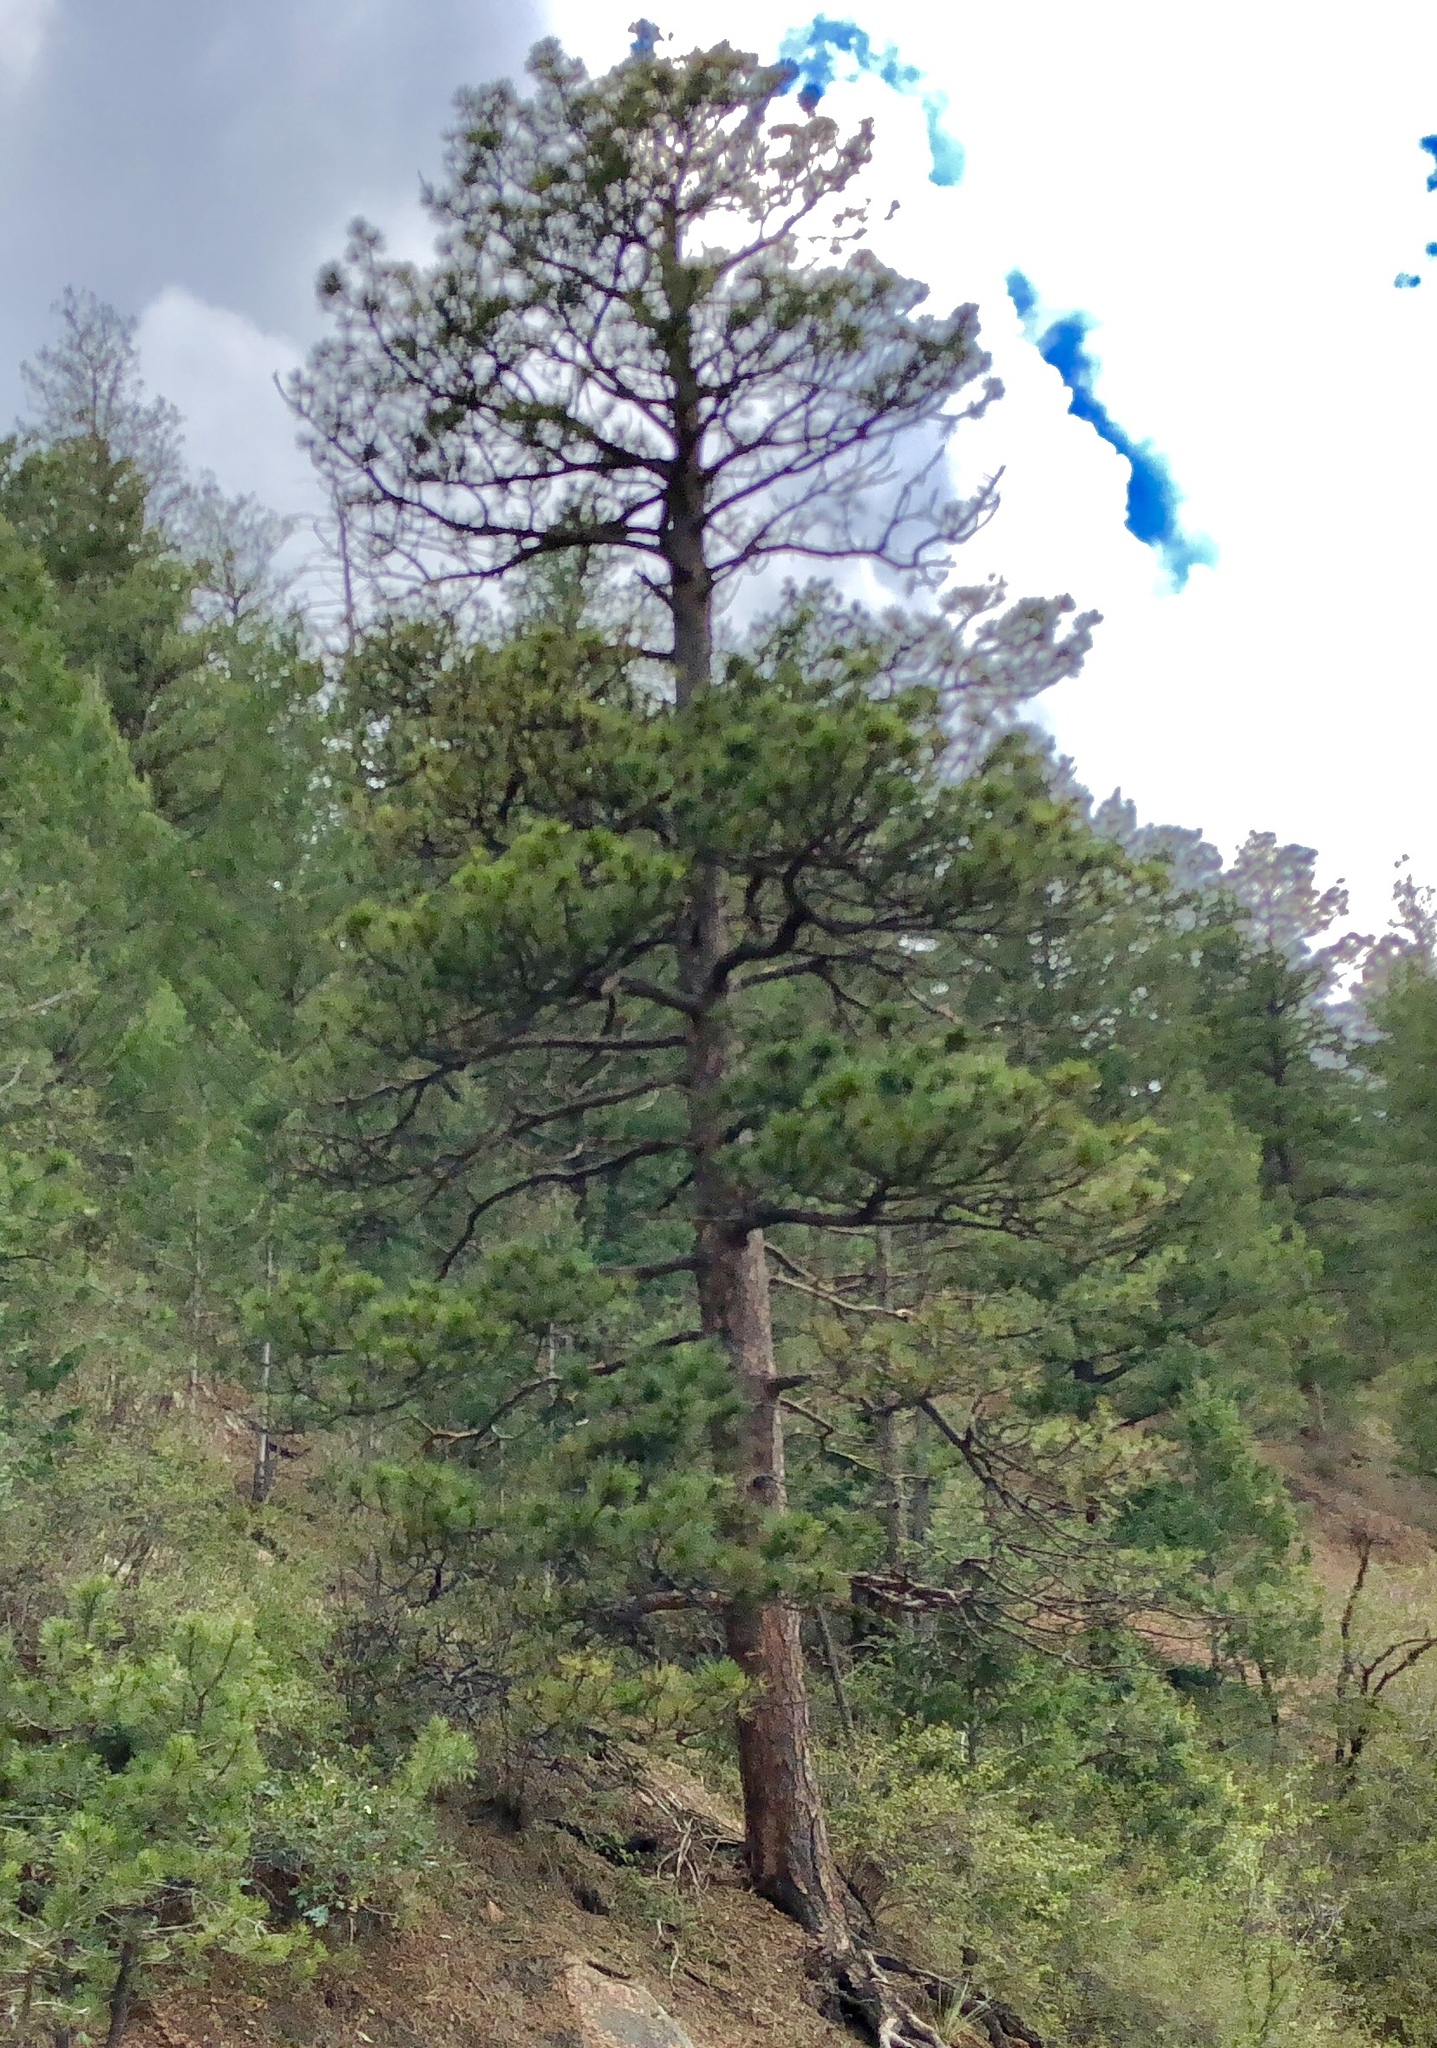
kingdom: Plantae
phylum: Tracheophyta
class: Pinopsida
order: Pinales
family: Pinaceae
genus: Pinus
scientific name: Pinus ponderosa
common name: Western yellow-pine
